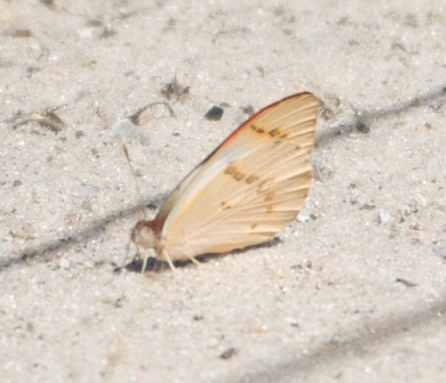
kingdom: Animalia
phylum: Arthropoda
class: Insecta
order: Lepidoptera
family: Pieridae
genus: Colotis
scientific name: Colotis annae
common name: Scarlet tip
